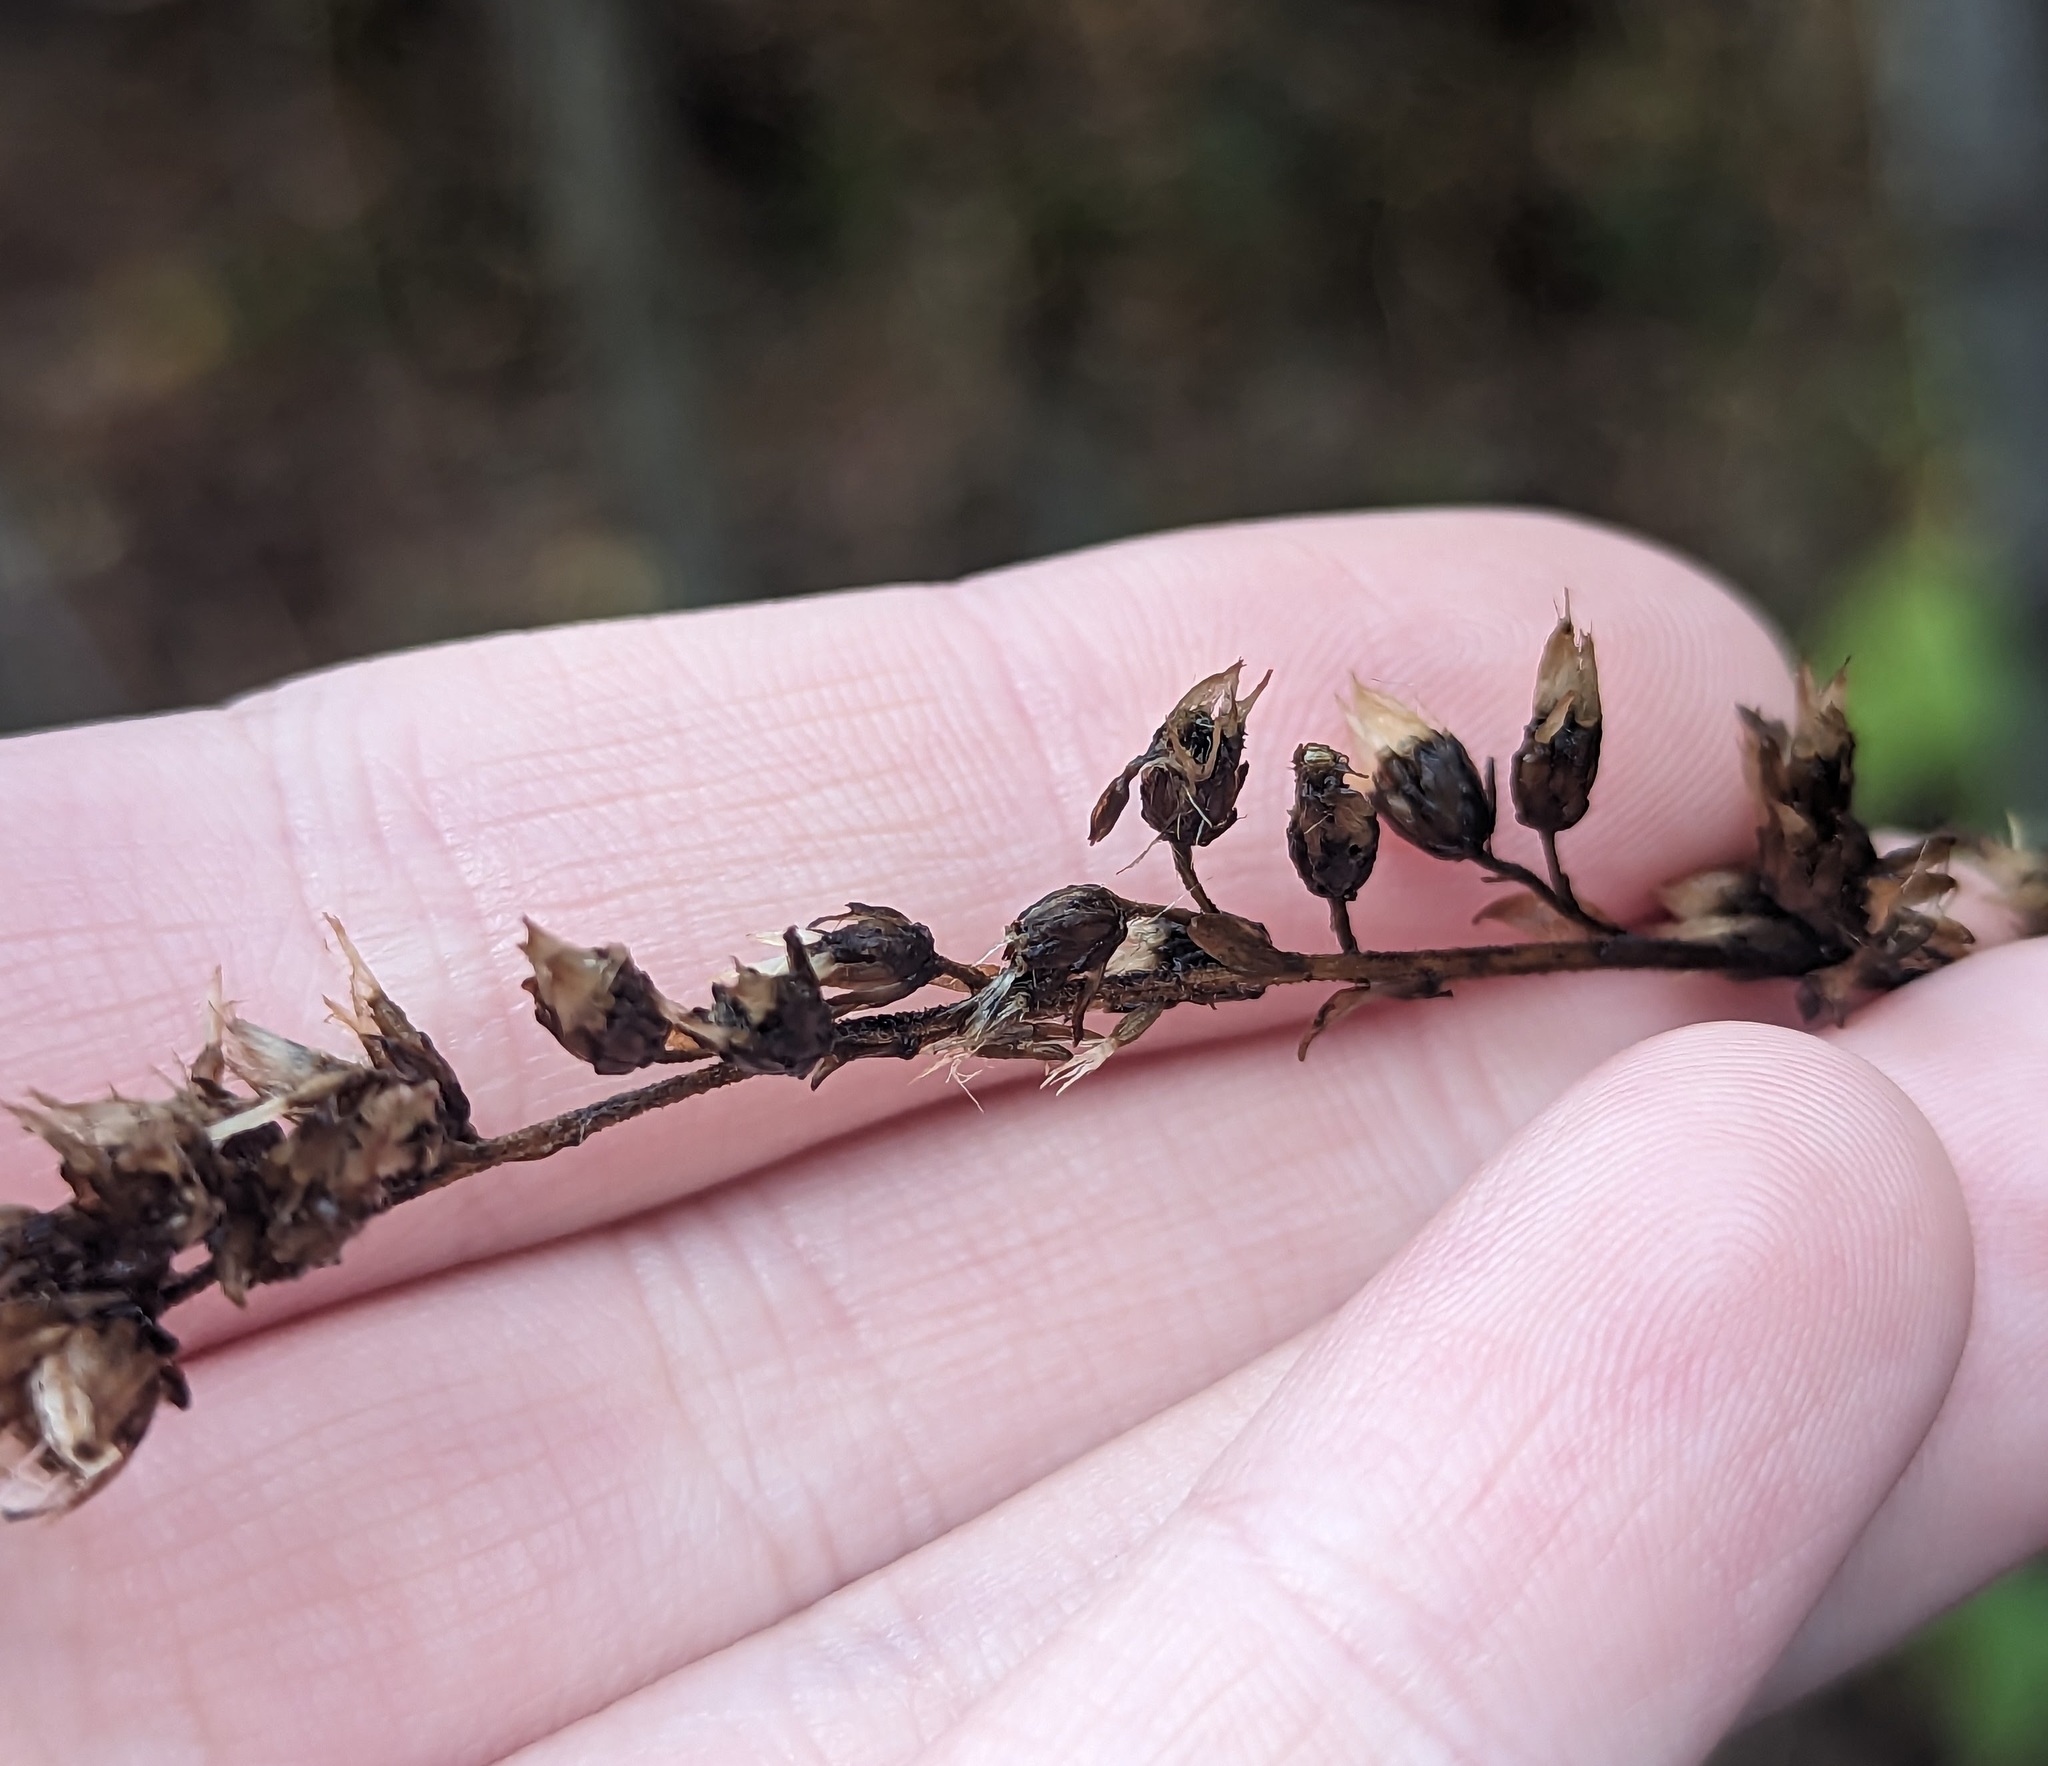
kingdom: Plantae
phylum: Tracheophyta
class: Magnoliopsida
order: Asterales
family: Asteraceae
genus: Solidago
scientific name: Solidago patula
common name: Rough-leaf goldenrod
